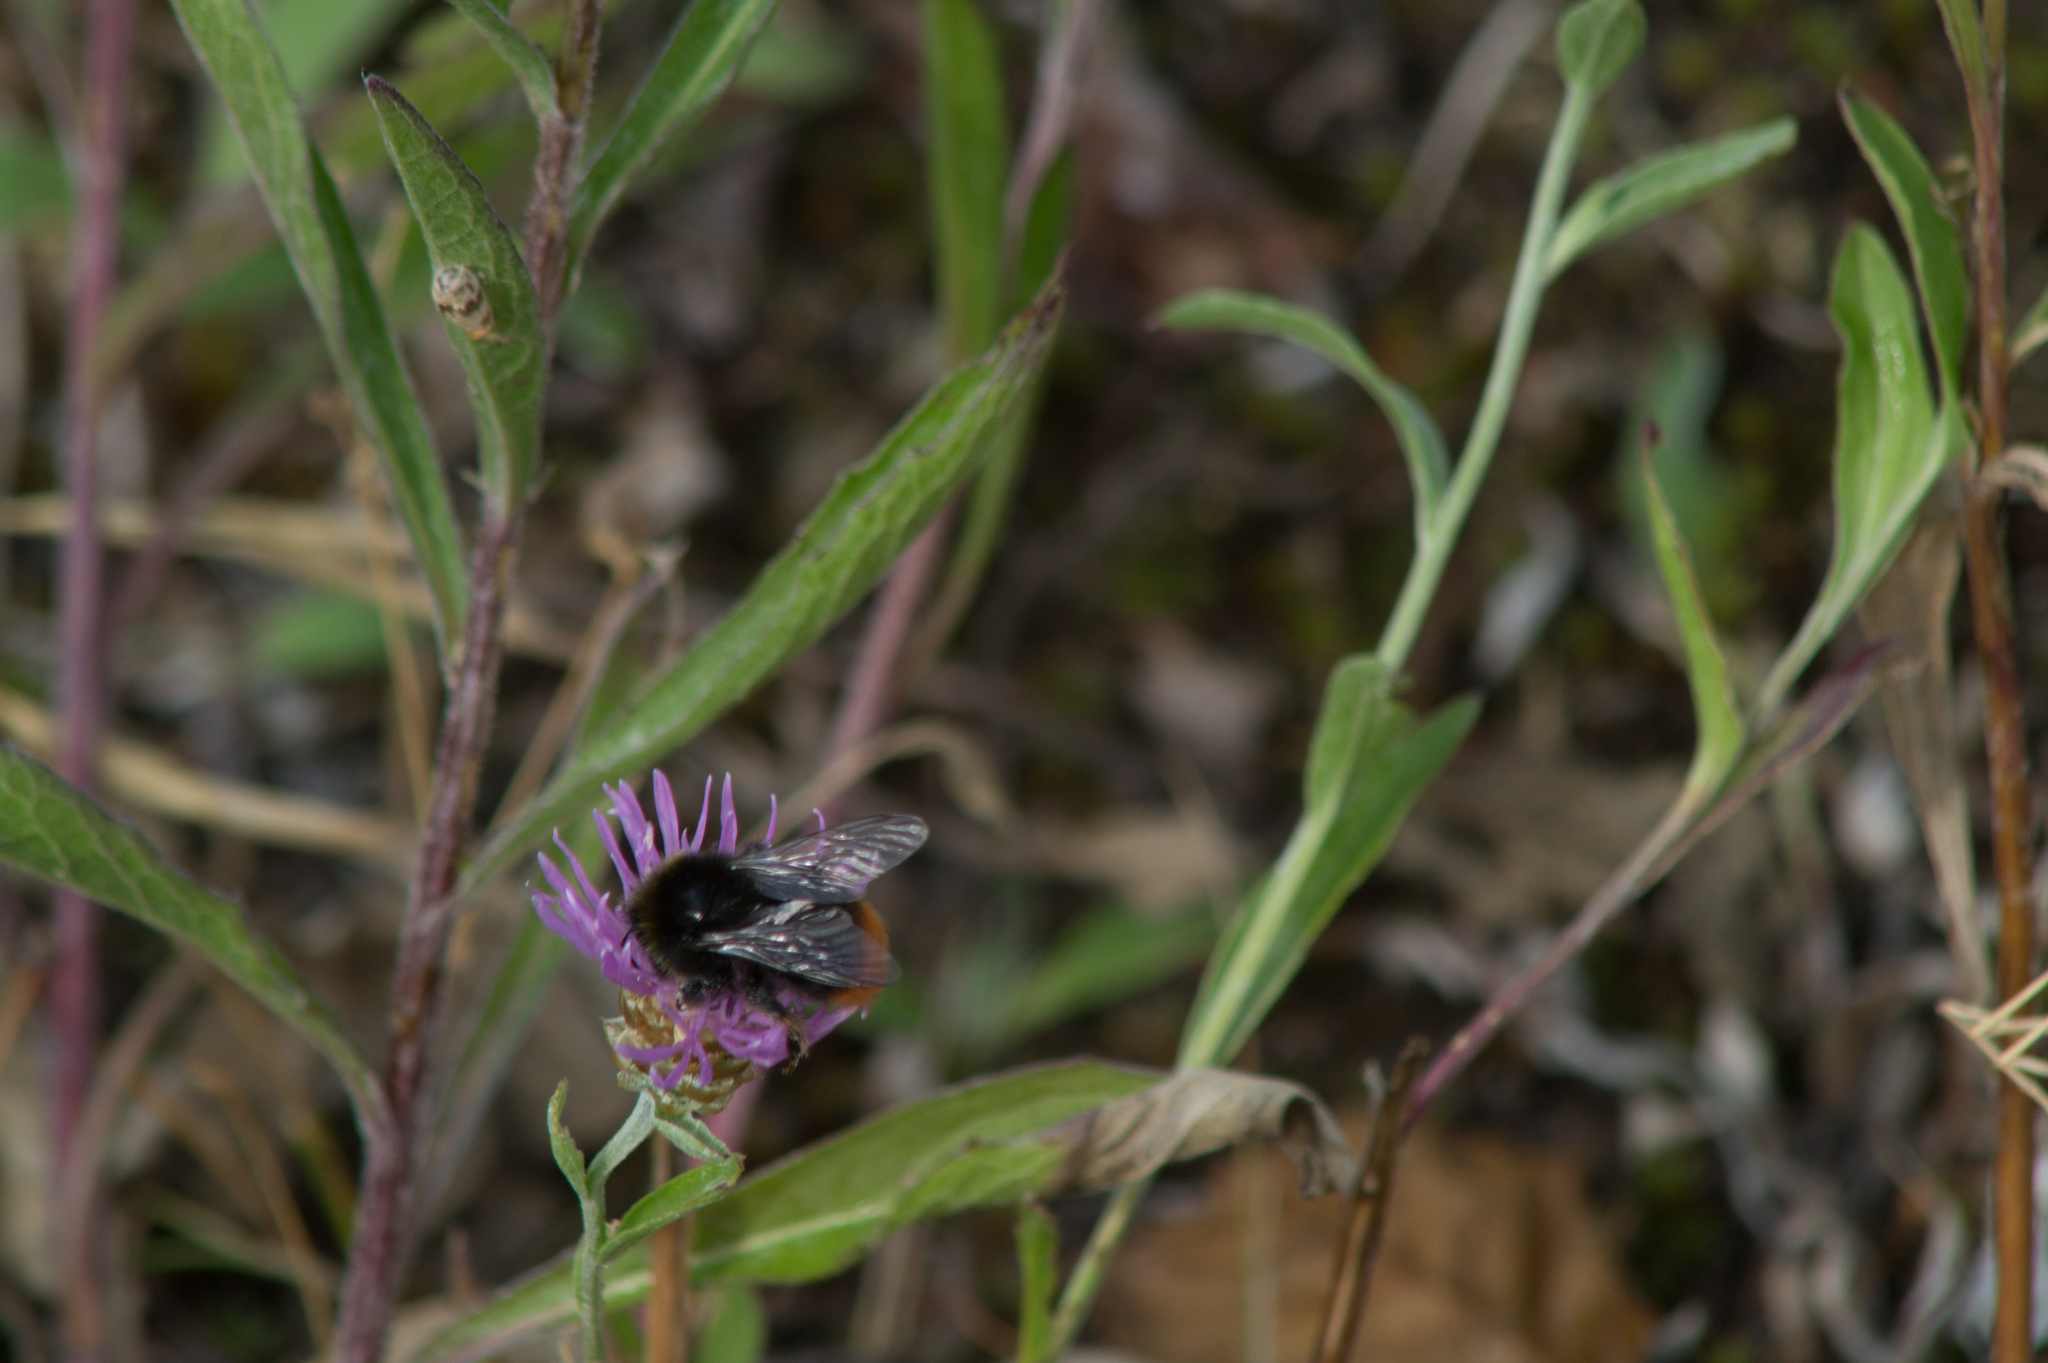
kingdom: Animalia
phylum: Arthropoda
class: Insecta
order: Hymenoptera
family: Apidae
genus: Bombus
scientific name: Bombus lapidarius
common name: Large red-tailed humble-bee
